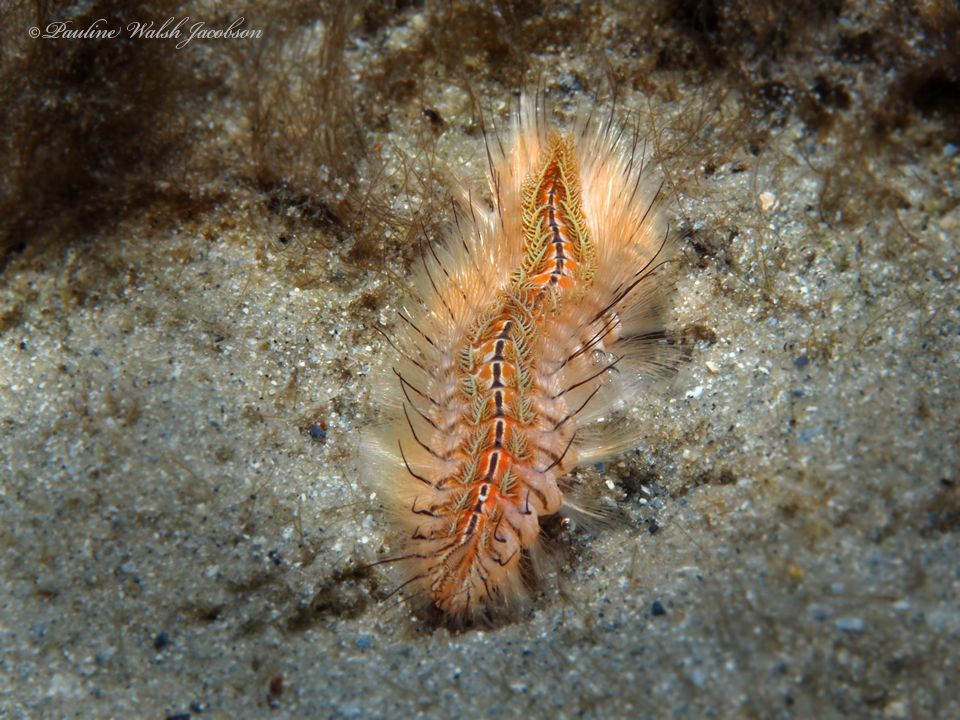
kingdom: Animalia
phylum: Annelida
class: Polychaeta
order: Amphinomida
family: Amphinomidae
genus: Chloeia
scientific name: Chloeia viridis
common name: Red-tipped fireworm
